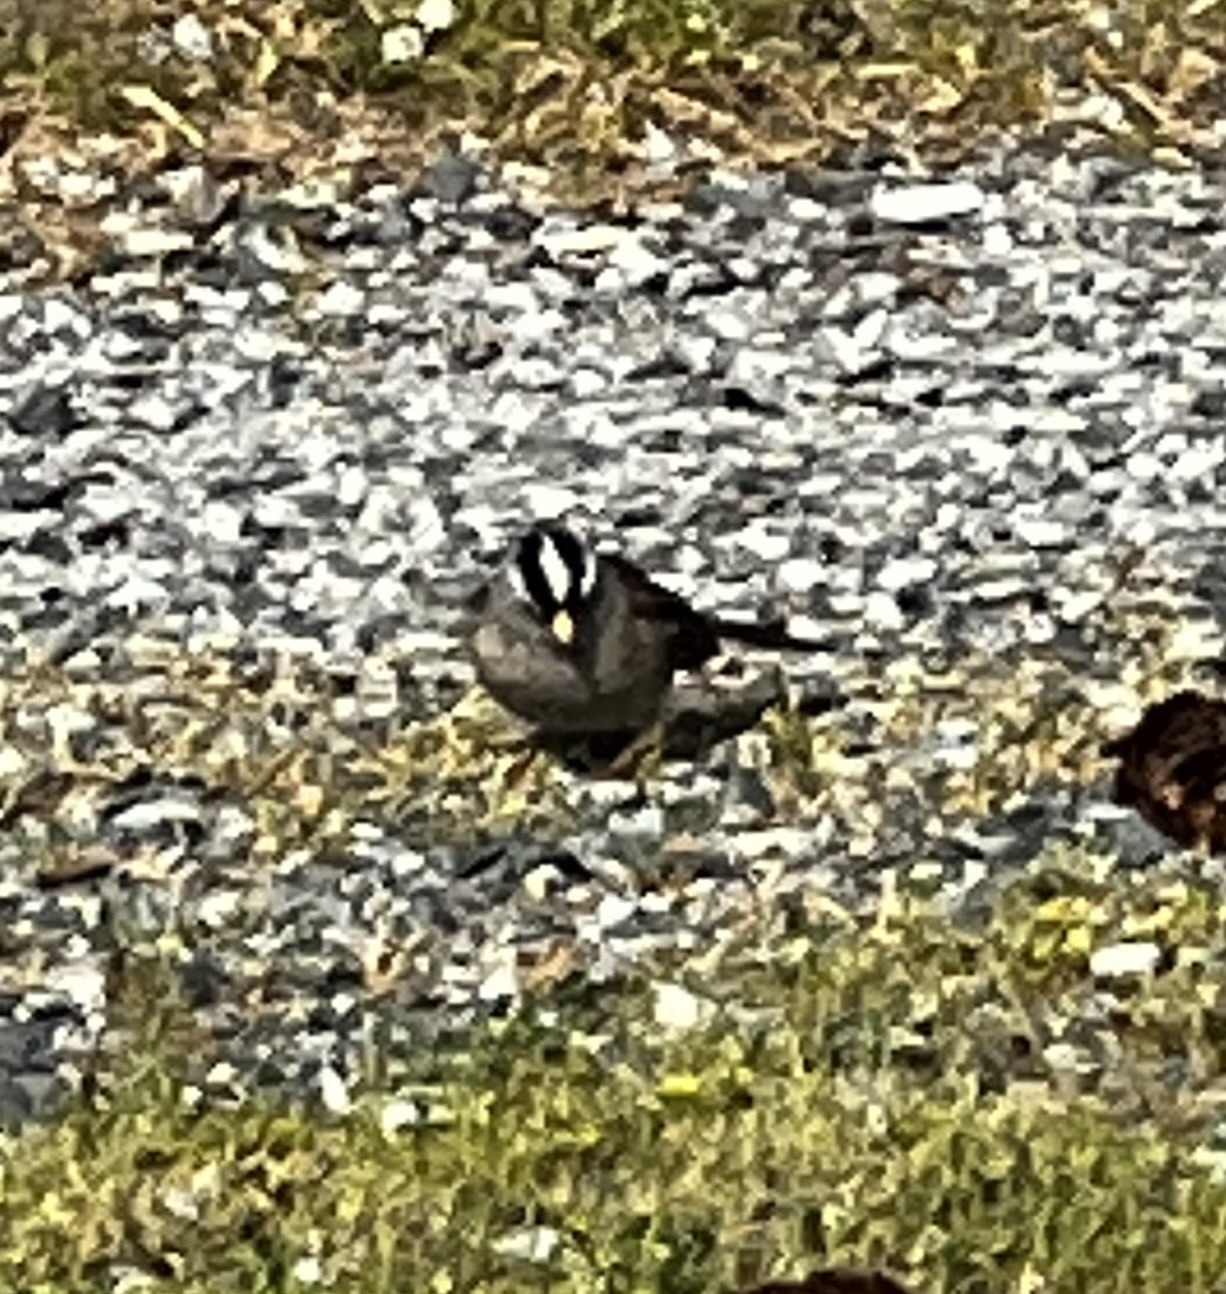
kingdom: Animalia
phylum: Chordata
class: Aves
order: Passeriformes
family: Passerellidae
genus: Zonotrichia
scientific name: Zonotrichia leucophrys
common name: White-crowned sparrow
